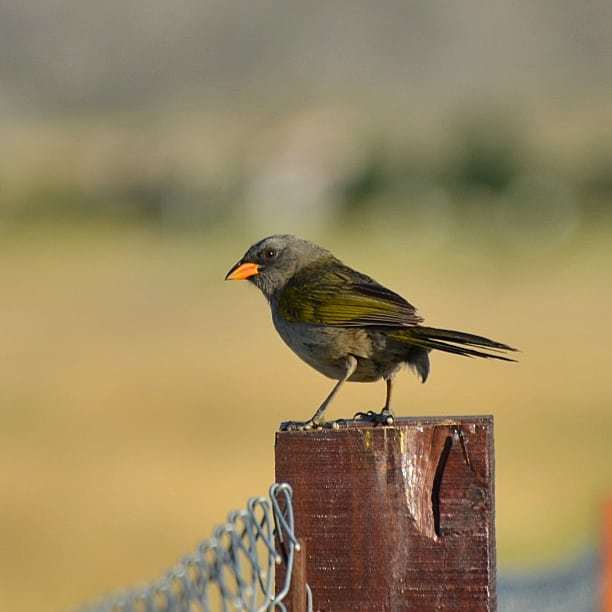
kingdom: Animalia
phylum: Chordata
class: Aves
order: Passeriformes
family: Thraupidae
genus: Embernagra
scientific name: Embernagra platensis
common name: Pampa finch
